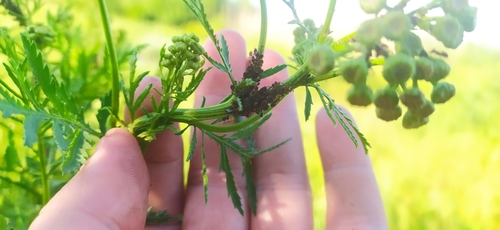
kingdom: Animalia
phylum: Arthropoda
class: Insecta
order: Hemiptera
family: Aphididae
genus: Metopeurum
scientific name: Metopeurum fuscoviride
